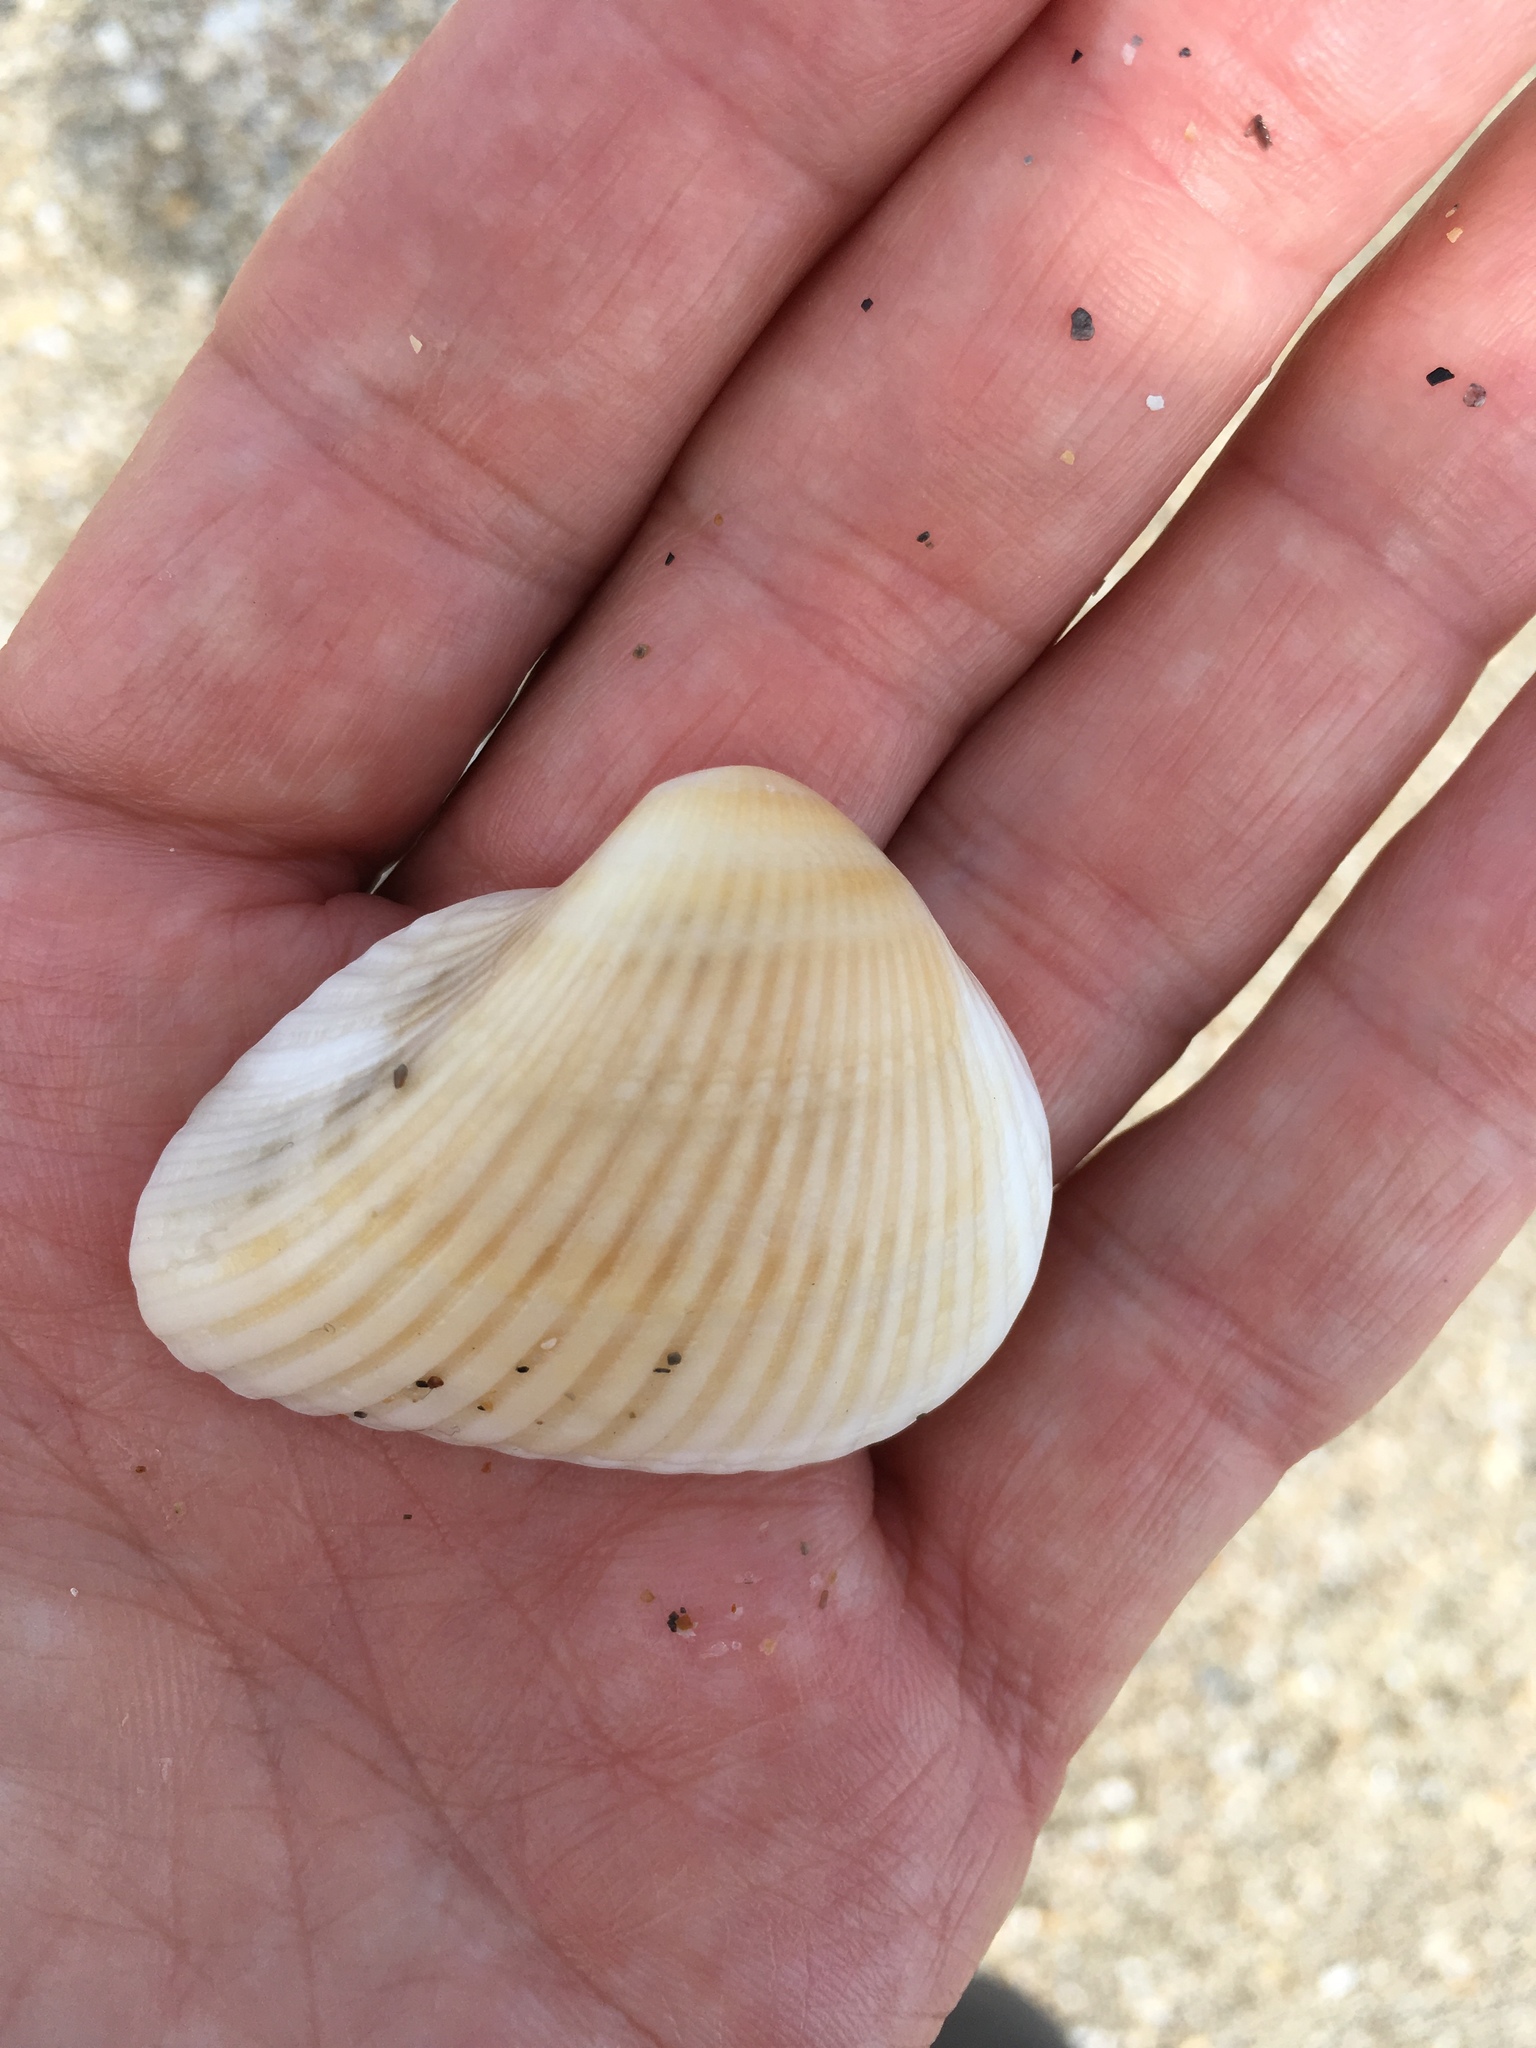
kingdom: Animalia
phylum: Mollusca
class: Bivalvia
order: Arcida
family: Noetiidae
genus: Noetia
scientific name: Noetia ponderosa
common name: Ponderous ark
